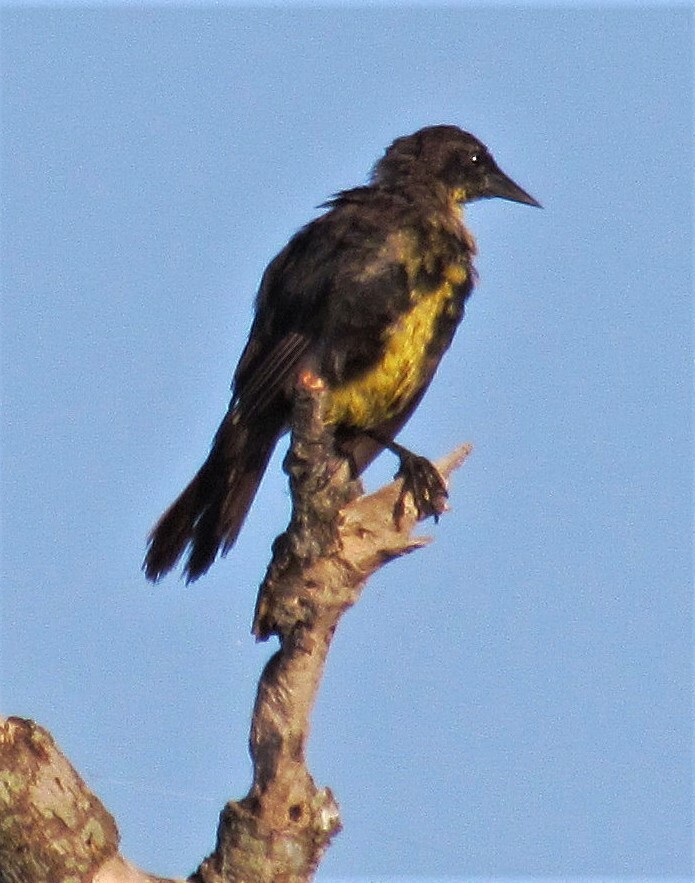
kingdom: Animalia
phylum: Chordata
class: Aves
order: Passeriformes
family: Icteridae
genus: Agelasticus
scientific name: Agelasticus cyanopus
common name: Unicolored blackbird
